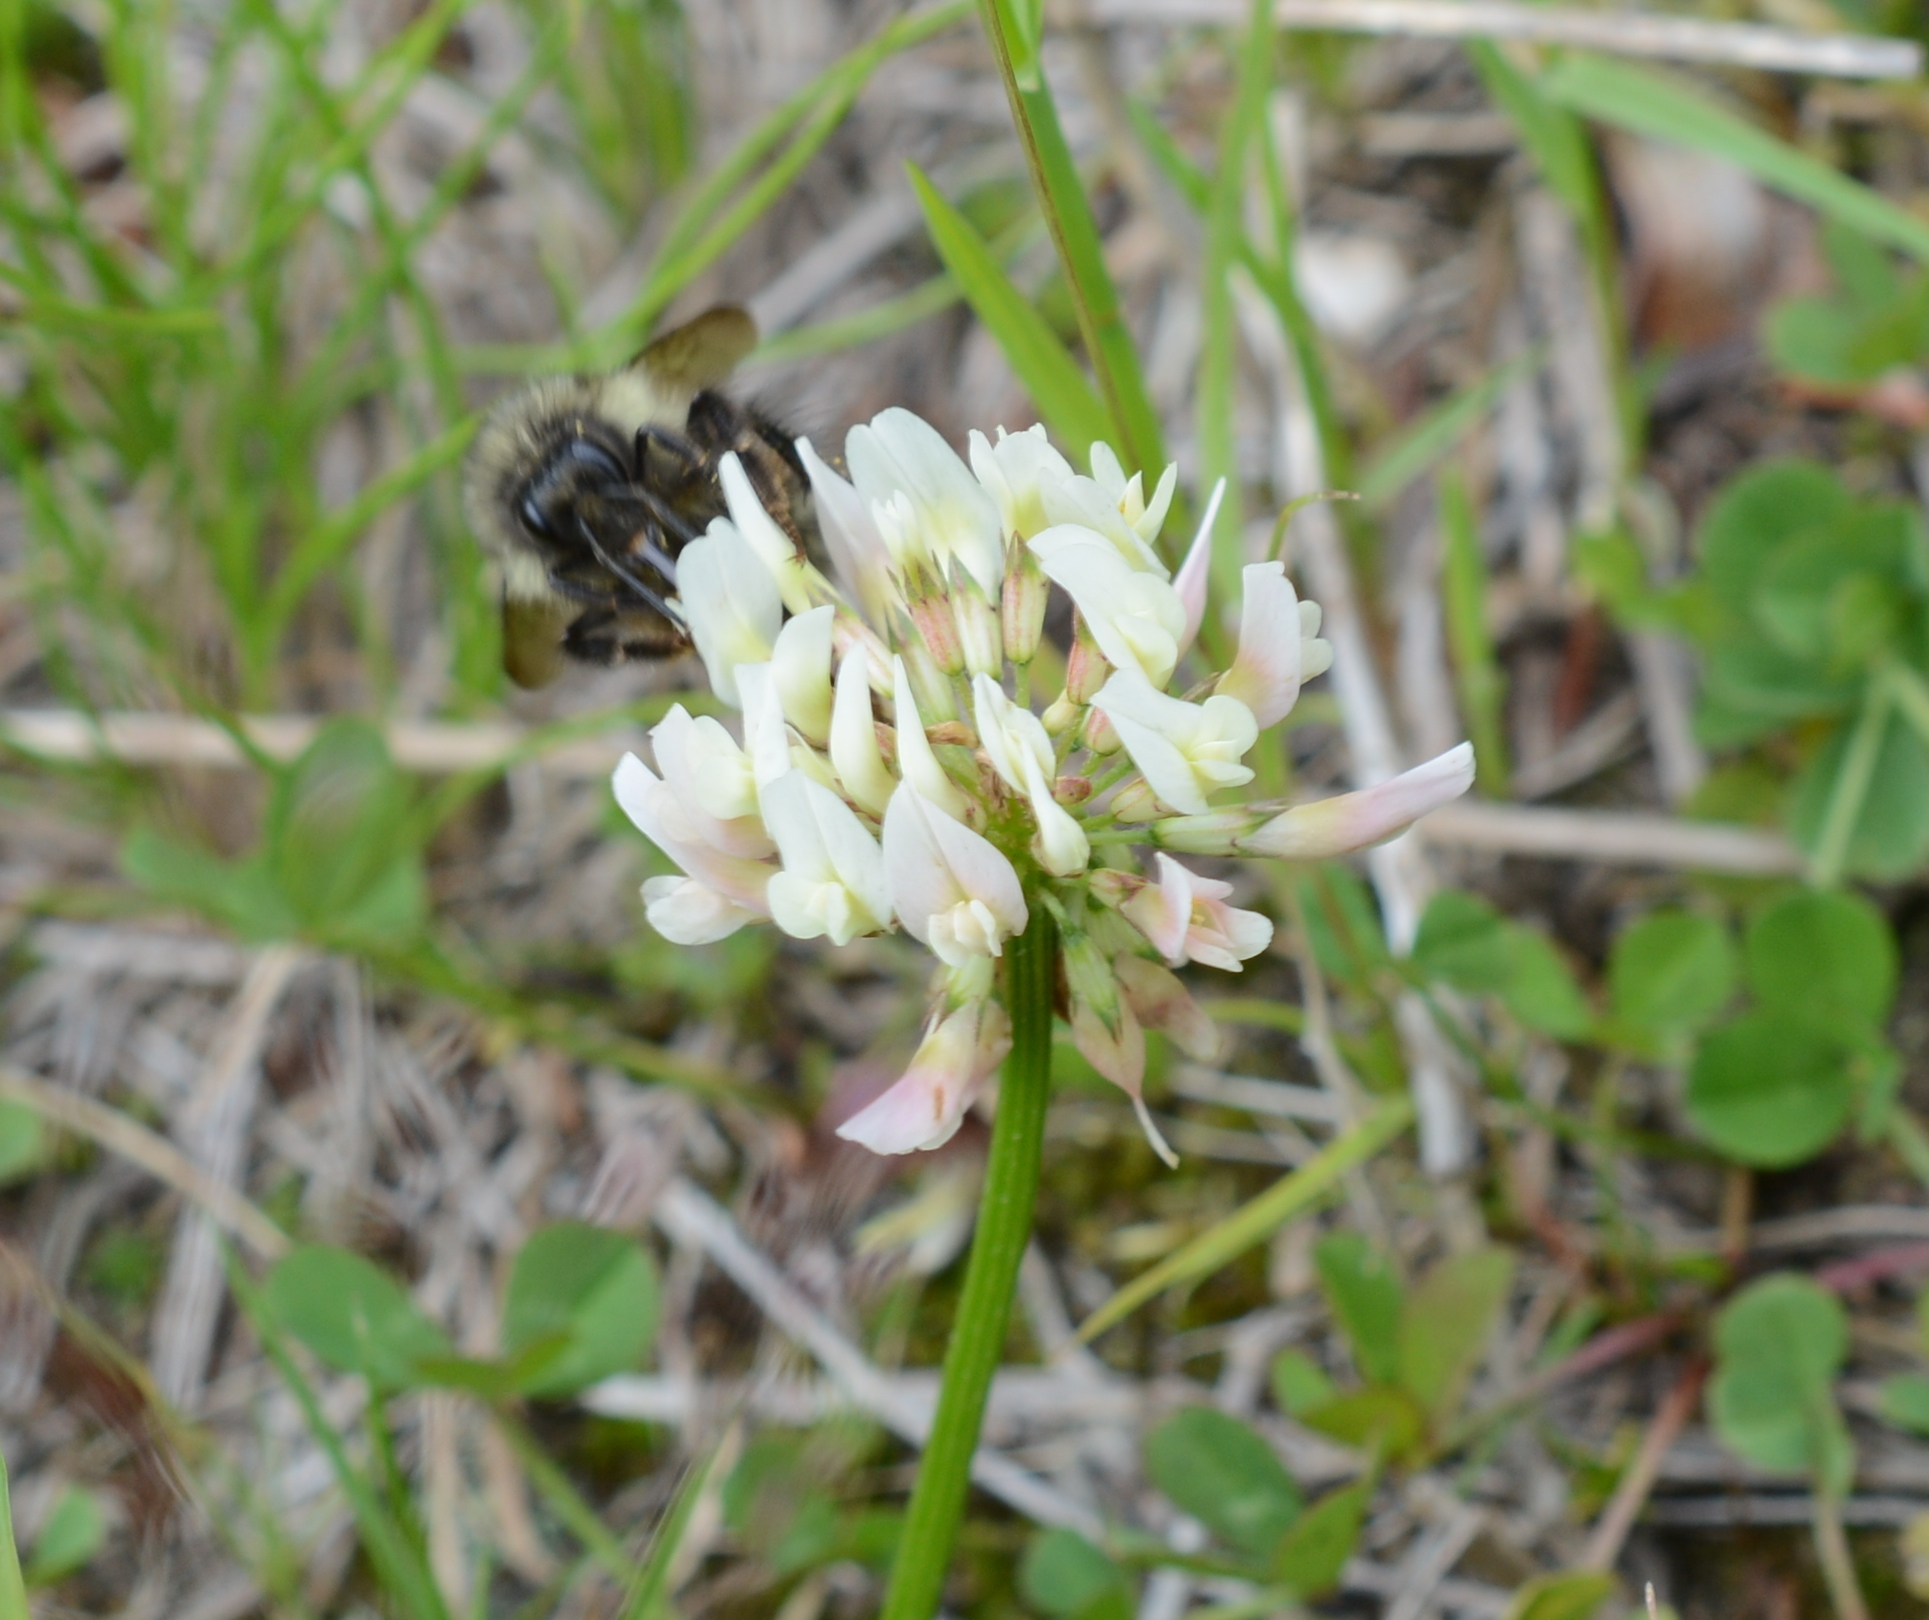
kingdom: Plantae
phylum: Tracheophyta
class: Magnoliopsida
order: Fabales
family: Fabaceae
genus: Trifolium
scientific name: Trifolium repens
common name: White clover
